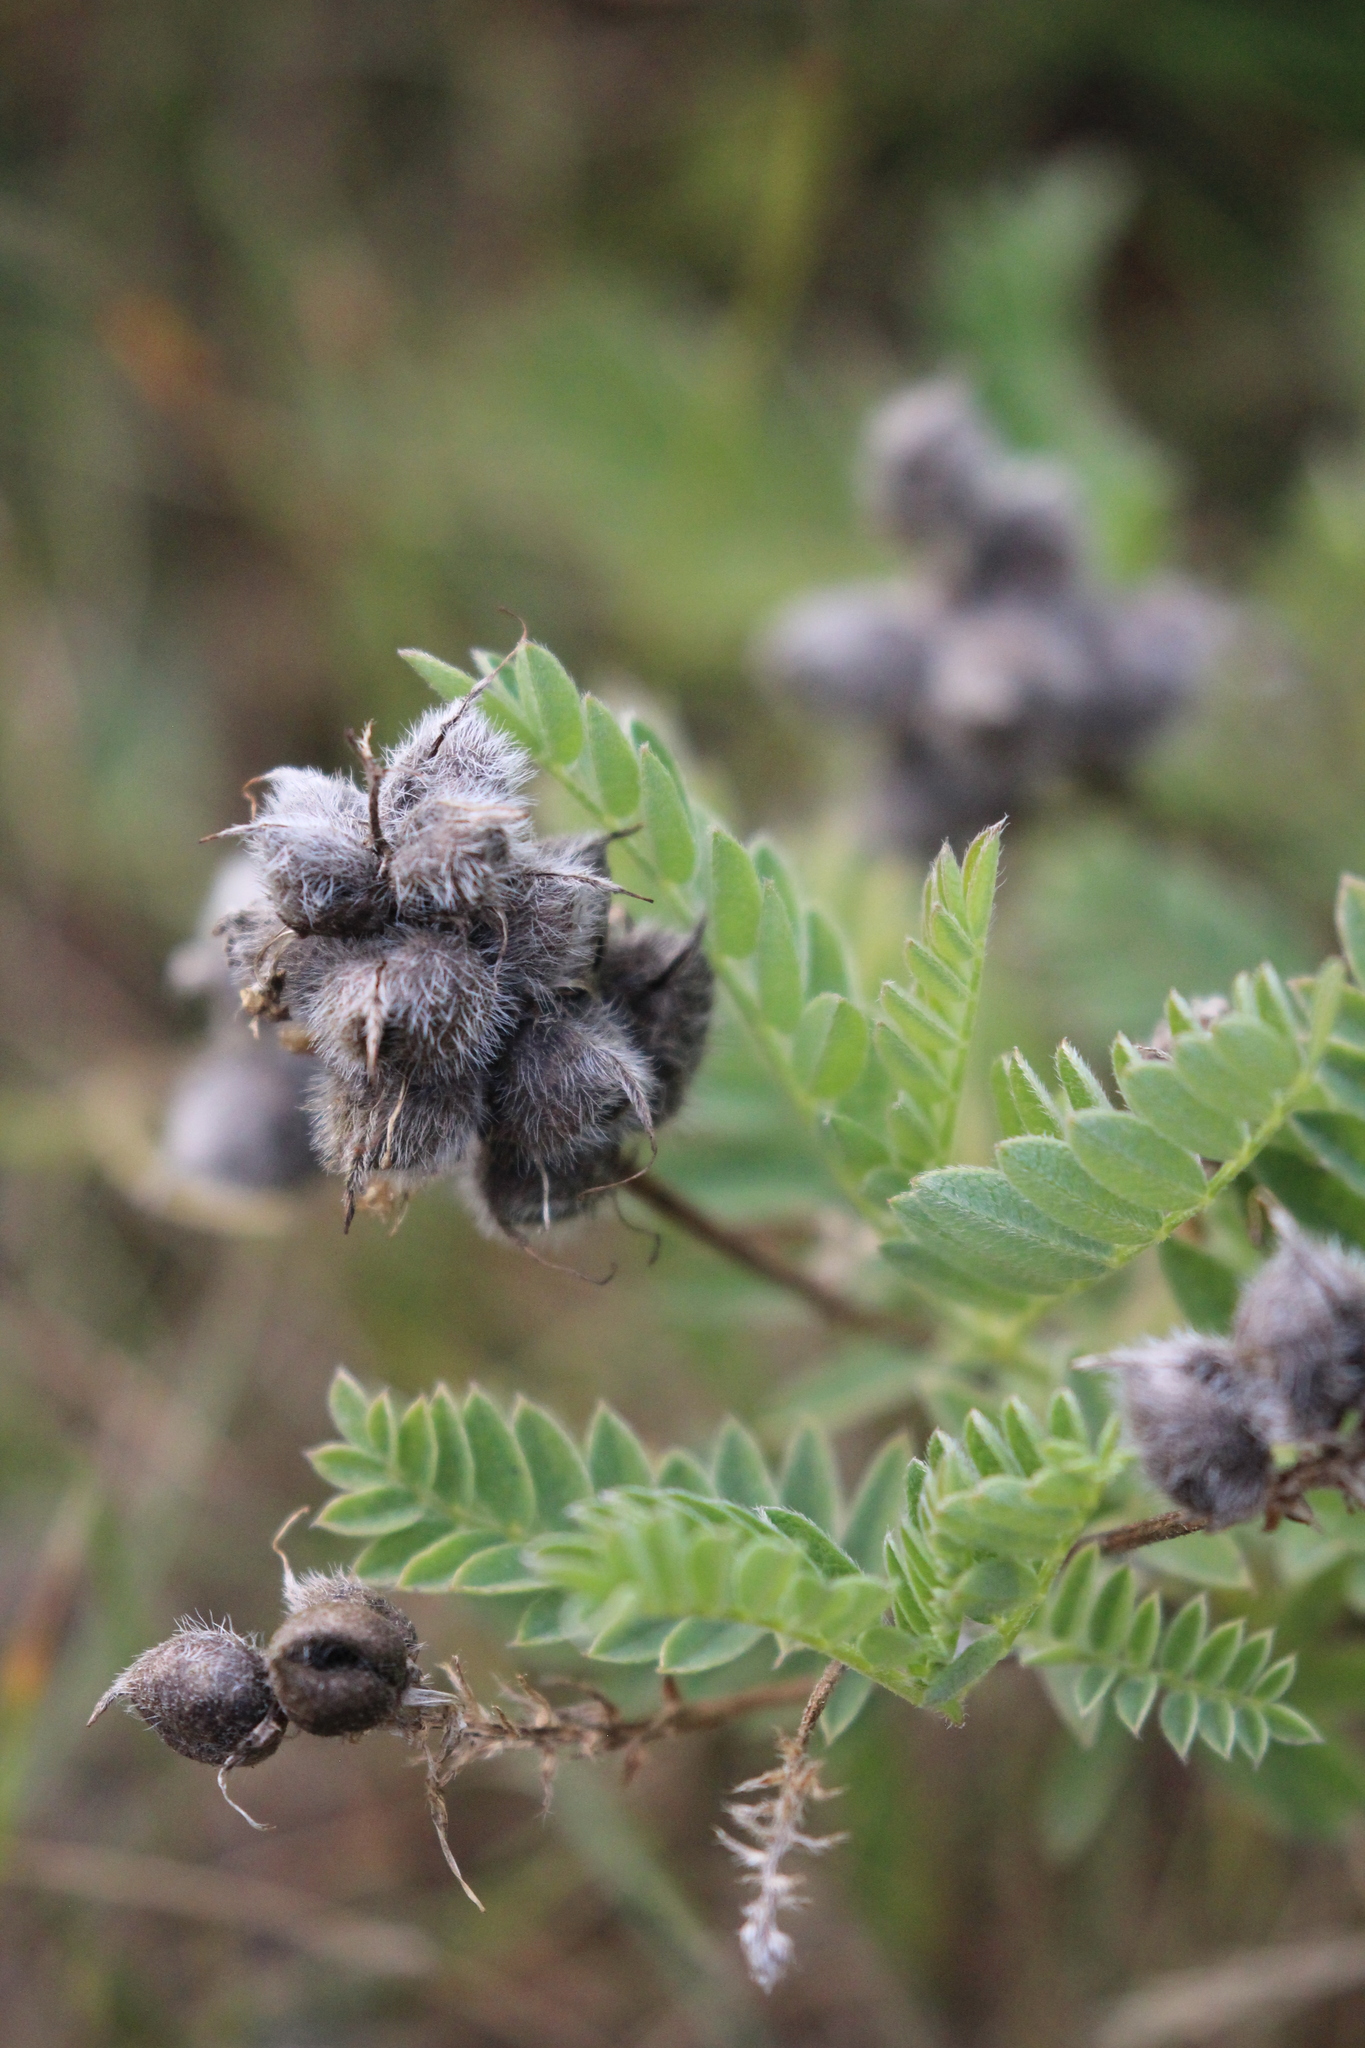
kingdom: Plantae
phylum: Tracheophyta
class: Magnoliopsida
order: Fabales
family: Fabaceae
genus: Astragalus
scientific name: Astragalus cicer
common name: Chick-pea milk-vetch
